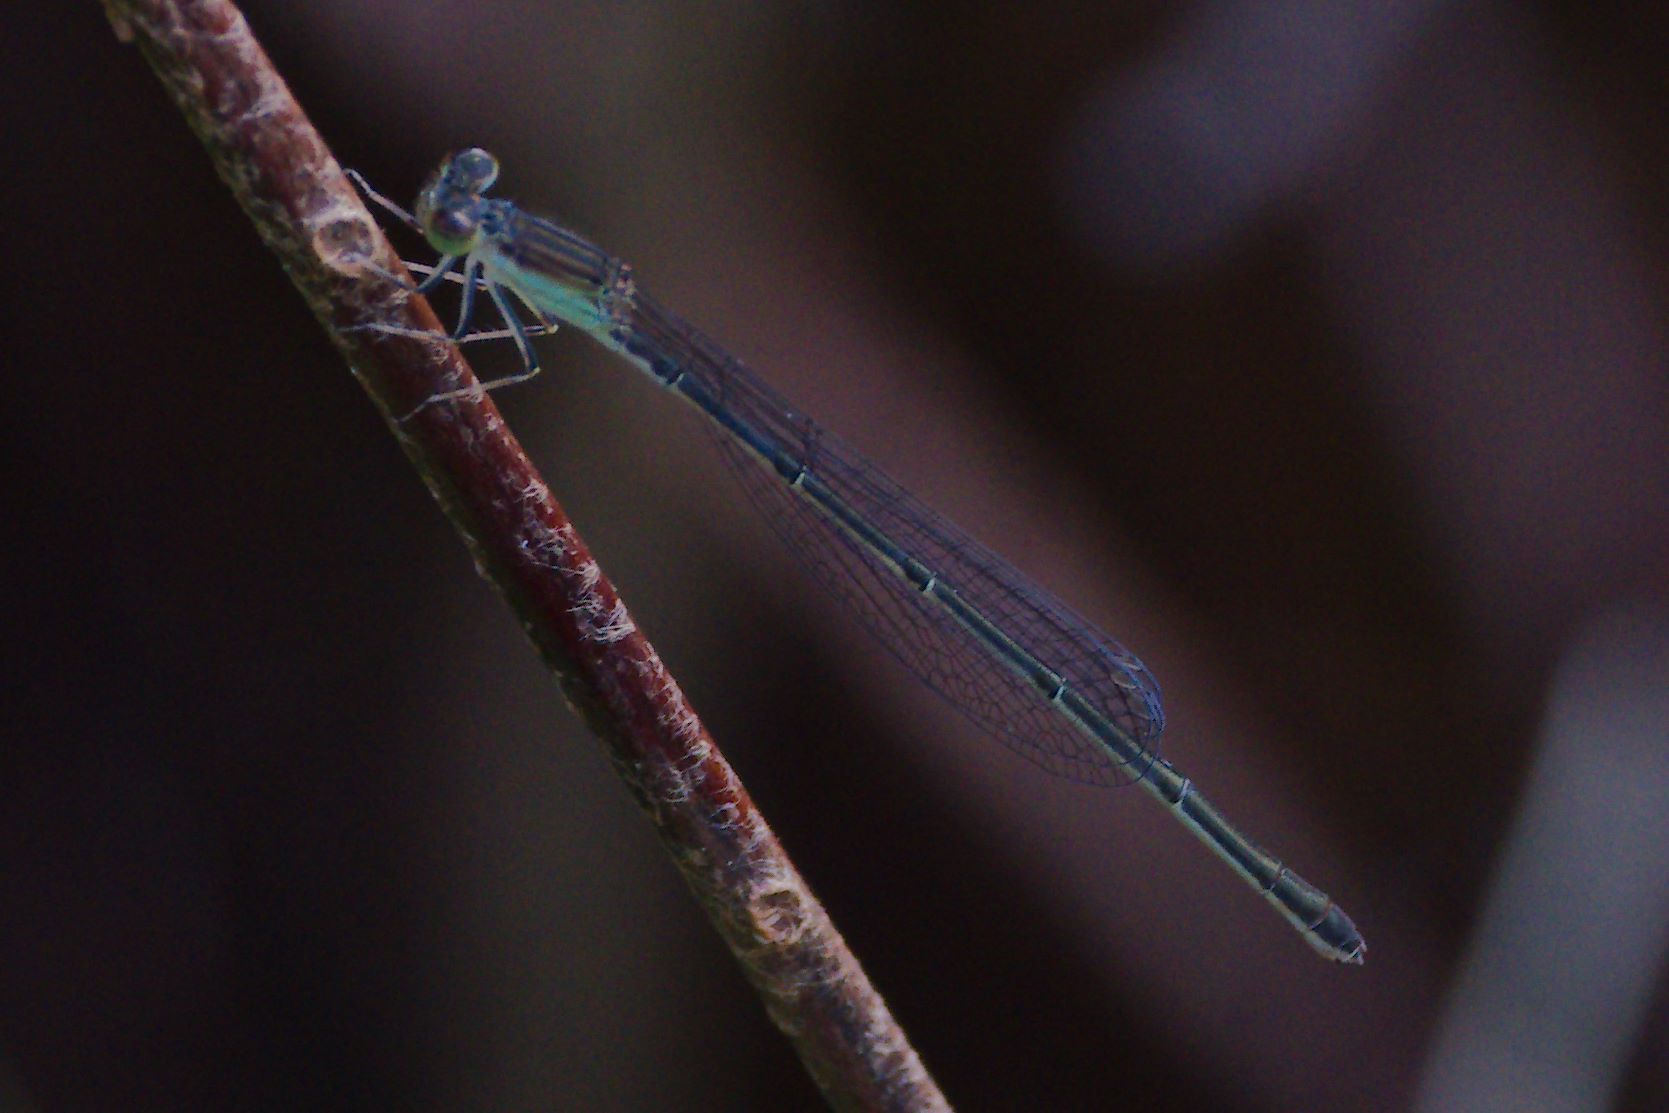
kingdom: Animalia
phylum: Arthropoda
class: Insecta
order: Odonata
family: Coenagrionidae
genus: Ischnura
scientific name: Ischnura prognata
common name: Furtive forktail
